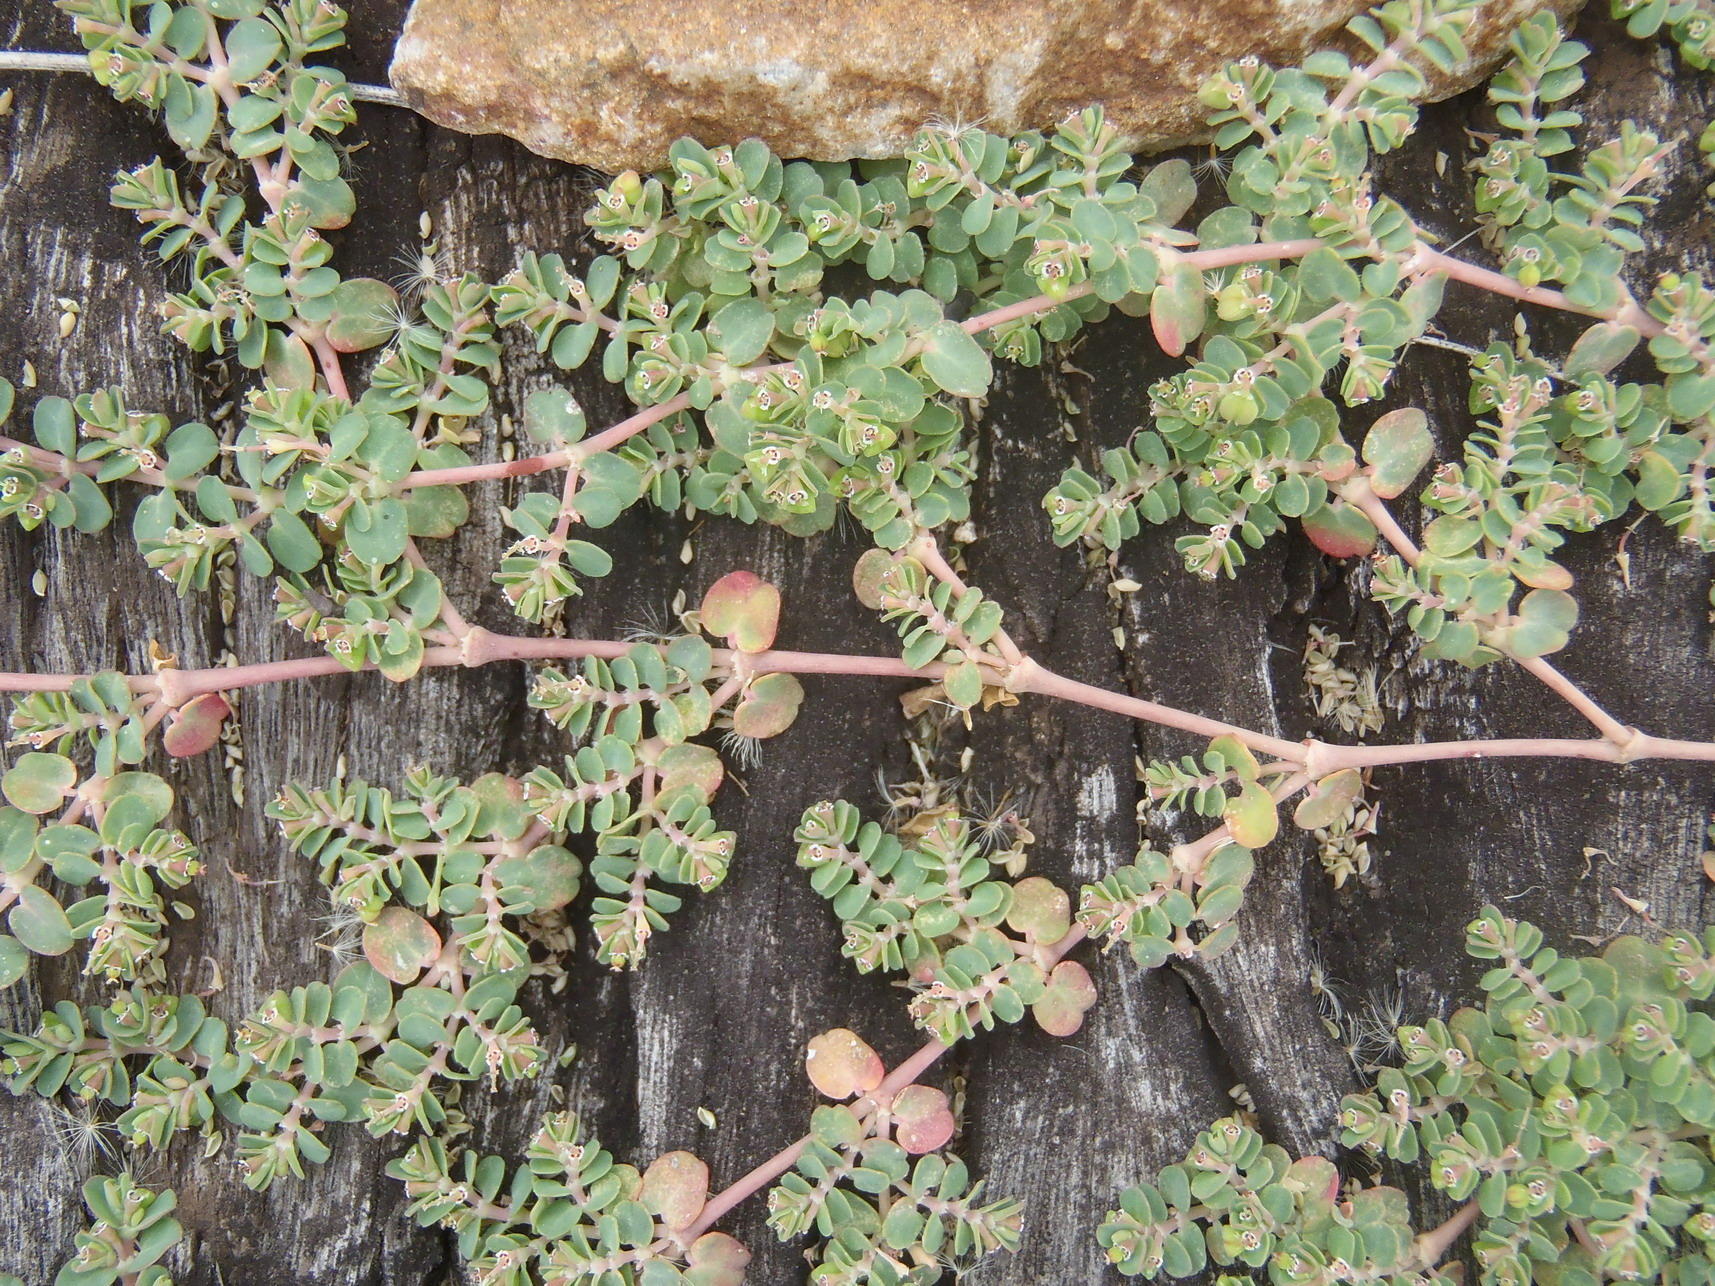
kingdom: Plantae
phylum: Tracheophyta
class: Magnoliopsida
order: Malpighiales
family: Euphorbiaceae
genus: Euphorbia
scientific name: Euphorbia serpens
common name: Matted sandmat
